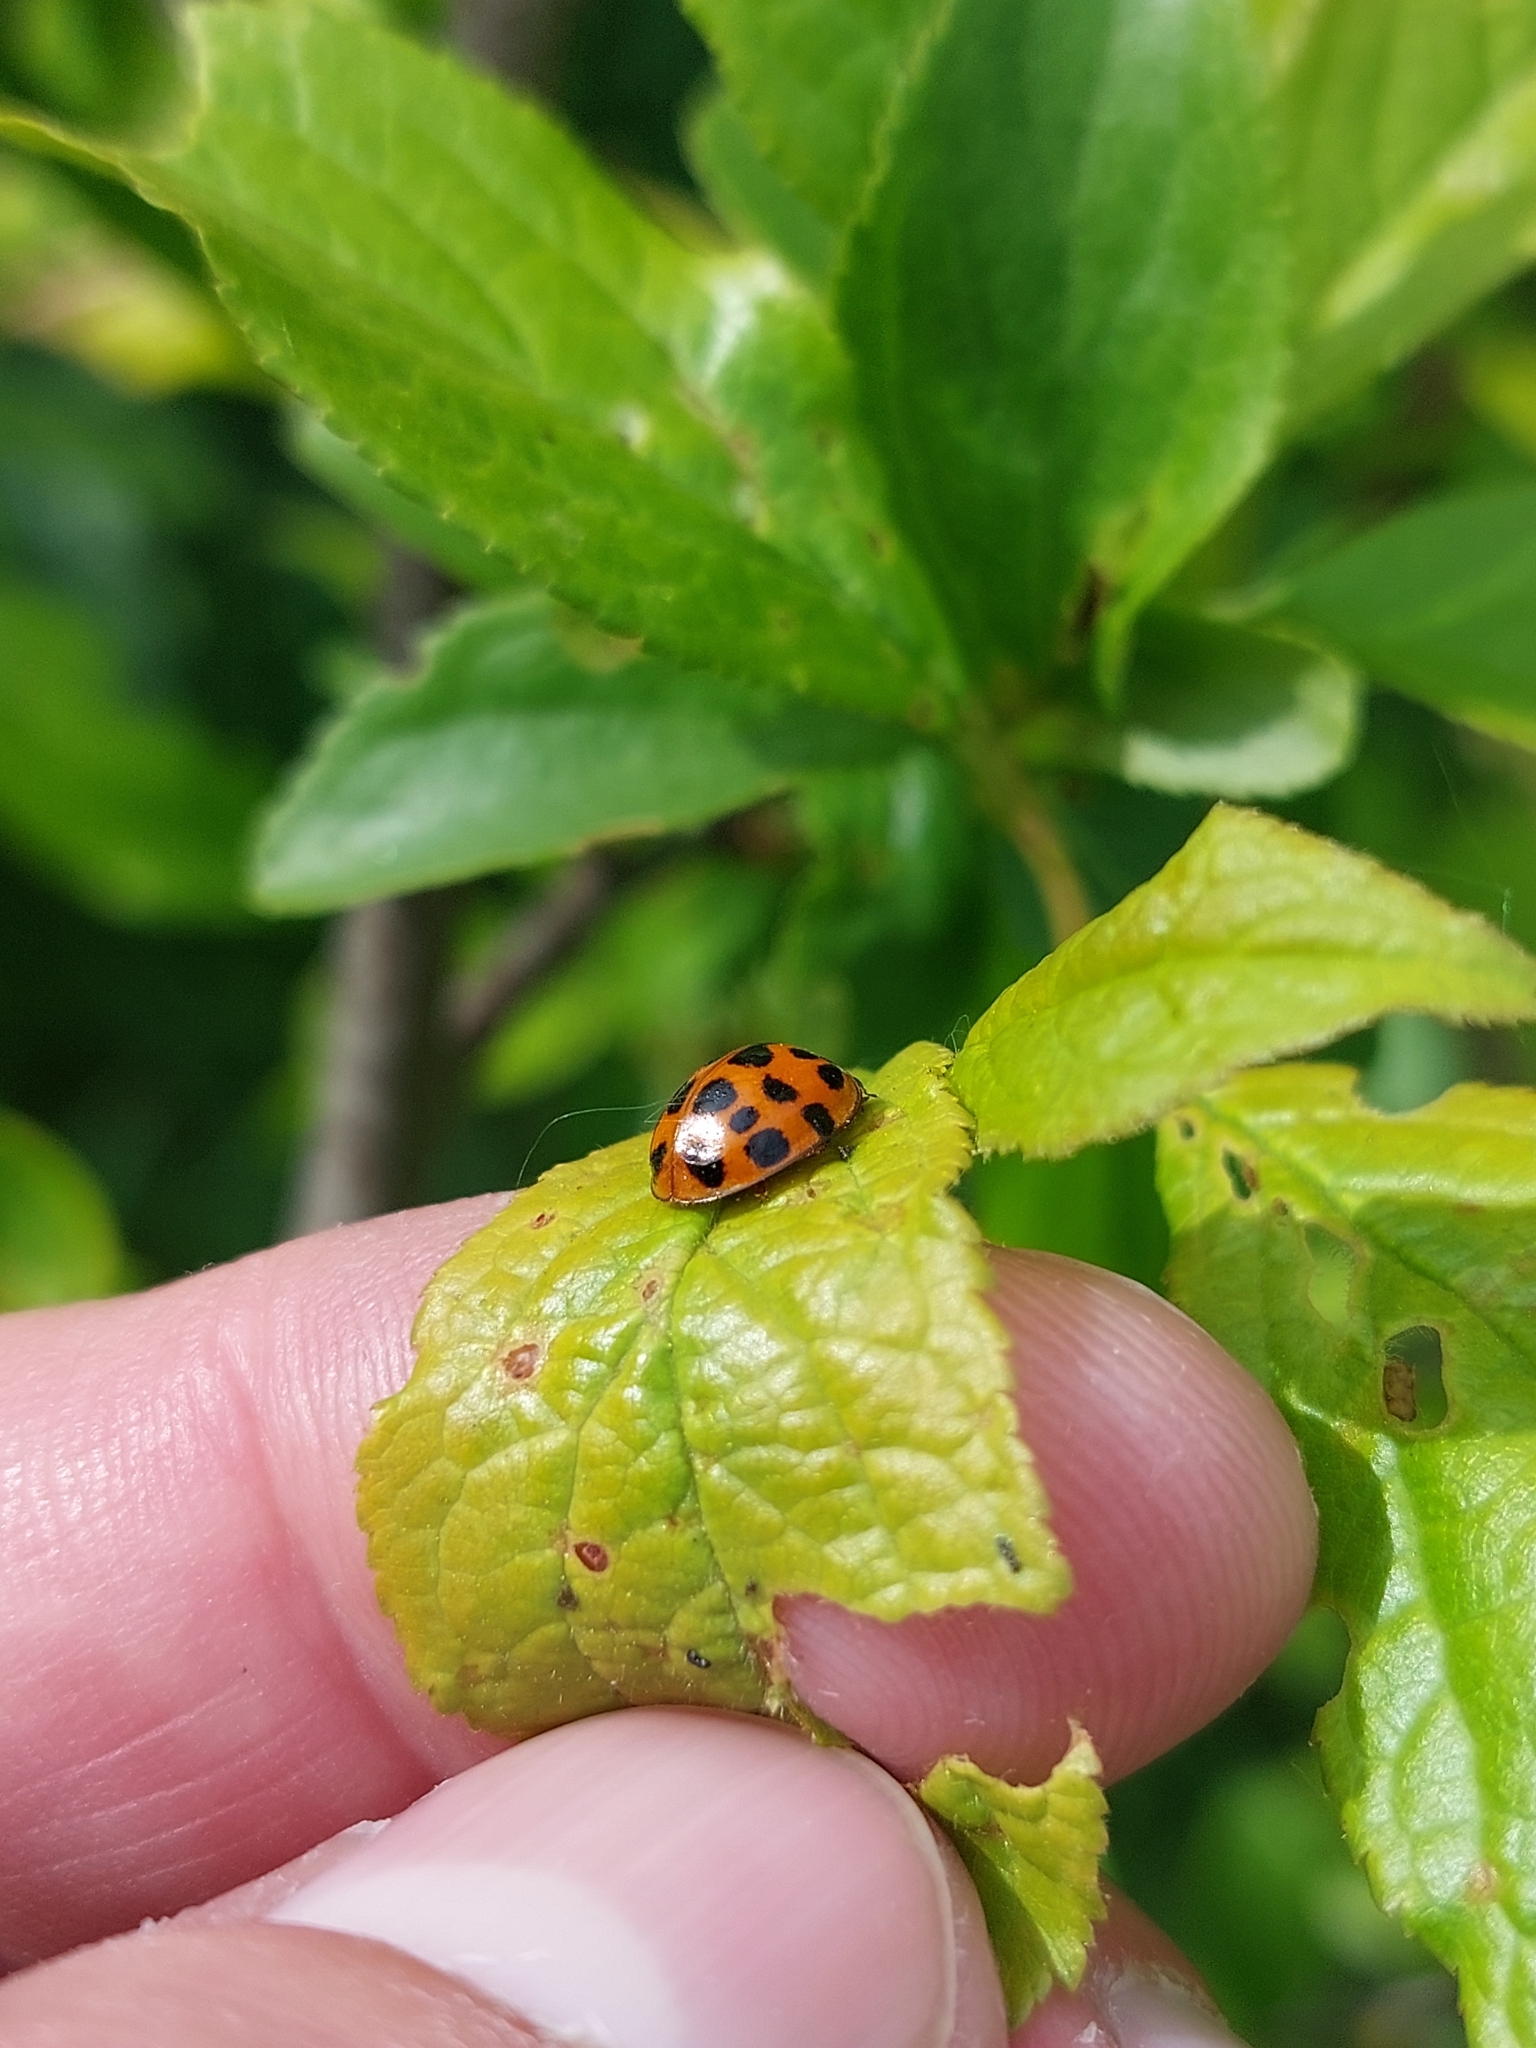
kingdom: Animalia
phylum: Arthropoda
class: Insecta
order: Coleoptera
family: Coccinellidae
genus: Harmonia
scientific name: Harmonia axyridis
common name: Harlequin ladybird
